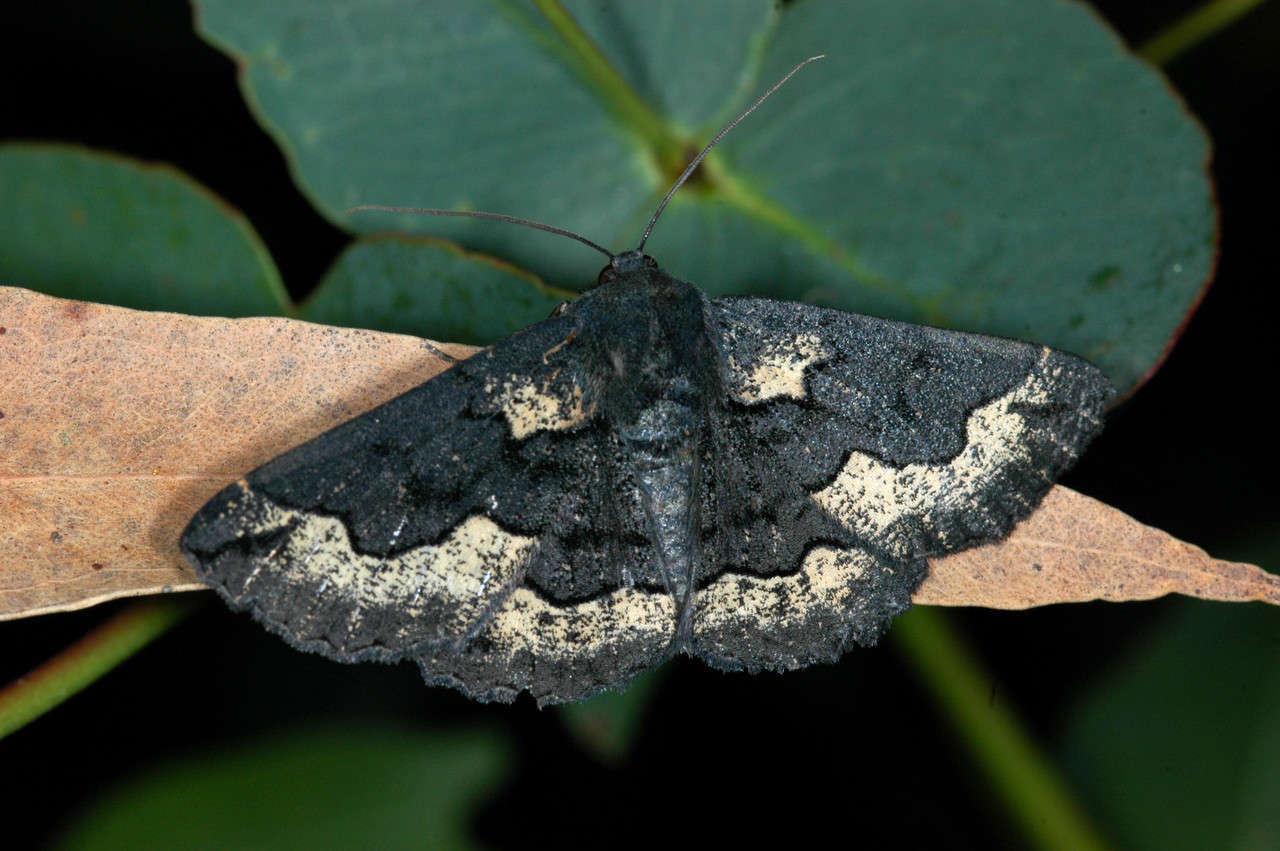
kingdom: Animalia
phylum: Arthropoda
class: Insecta
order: Lepidoptera
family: Geometridae
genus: Melanodes
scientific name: Melanodes anthracitaria
